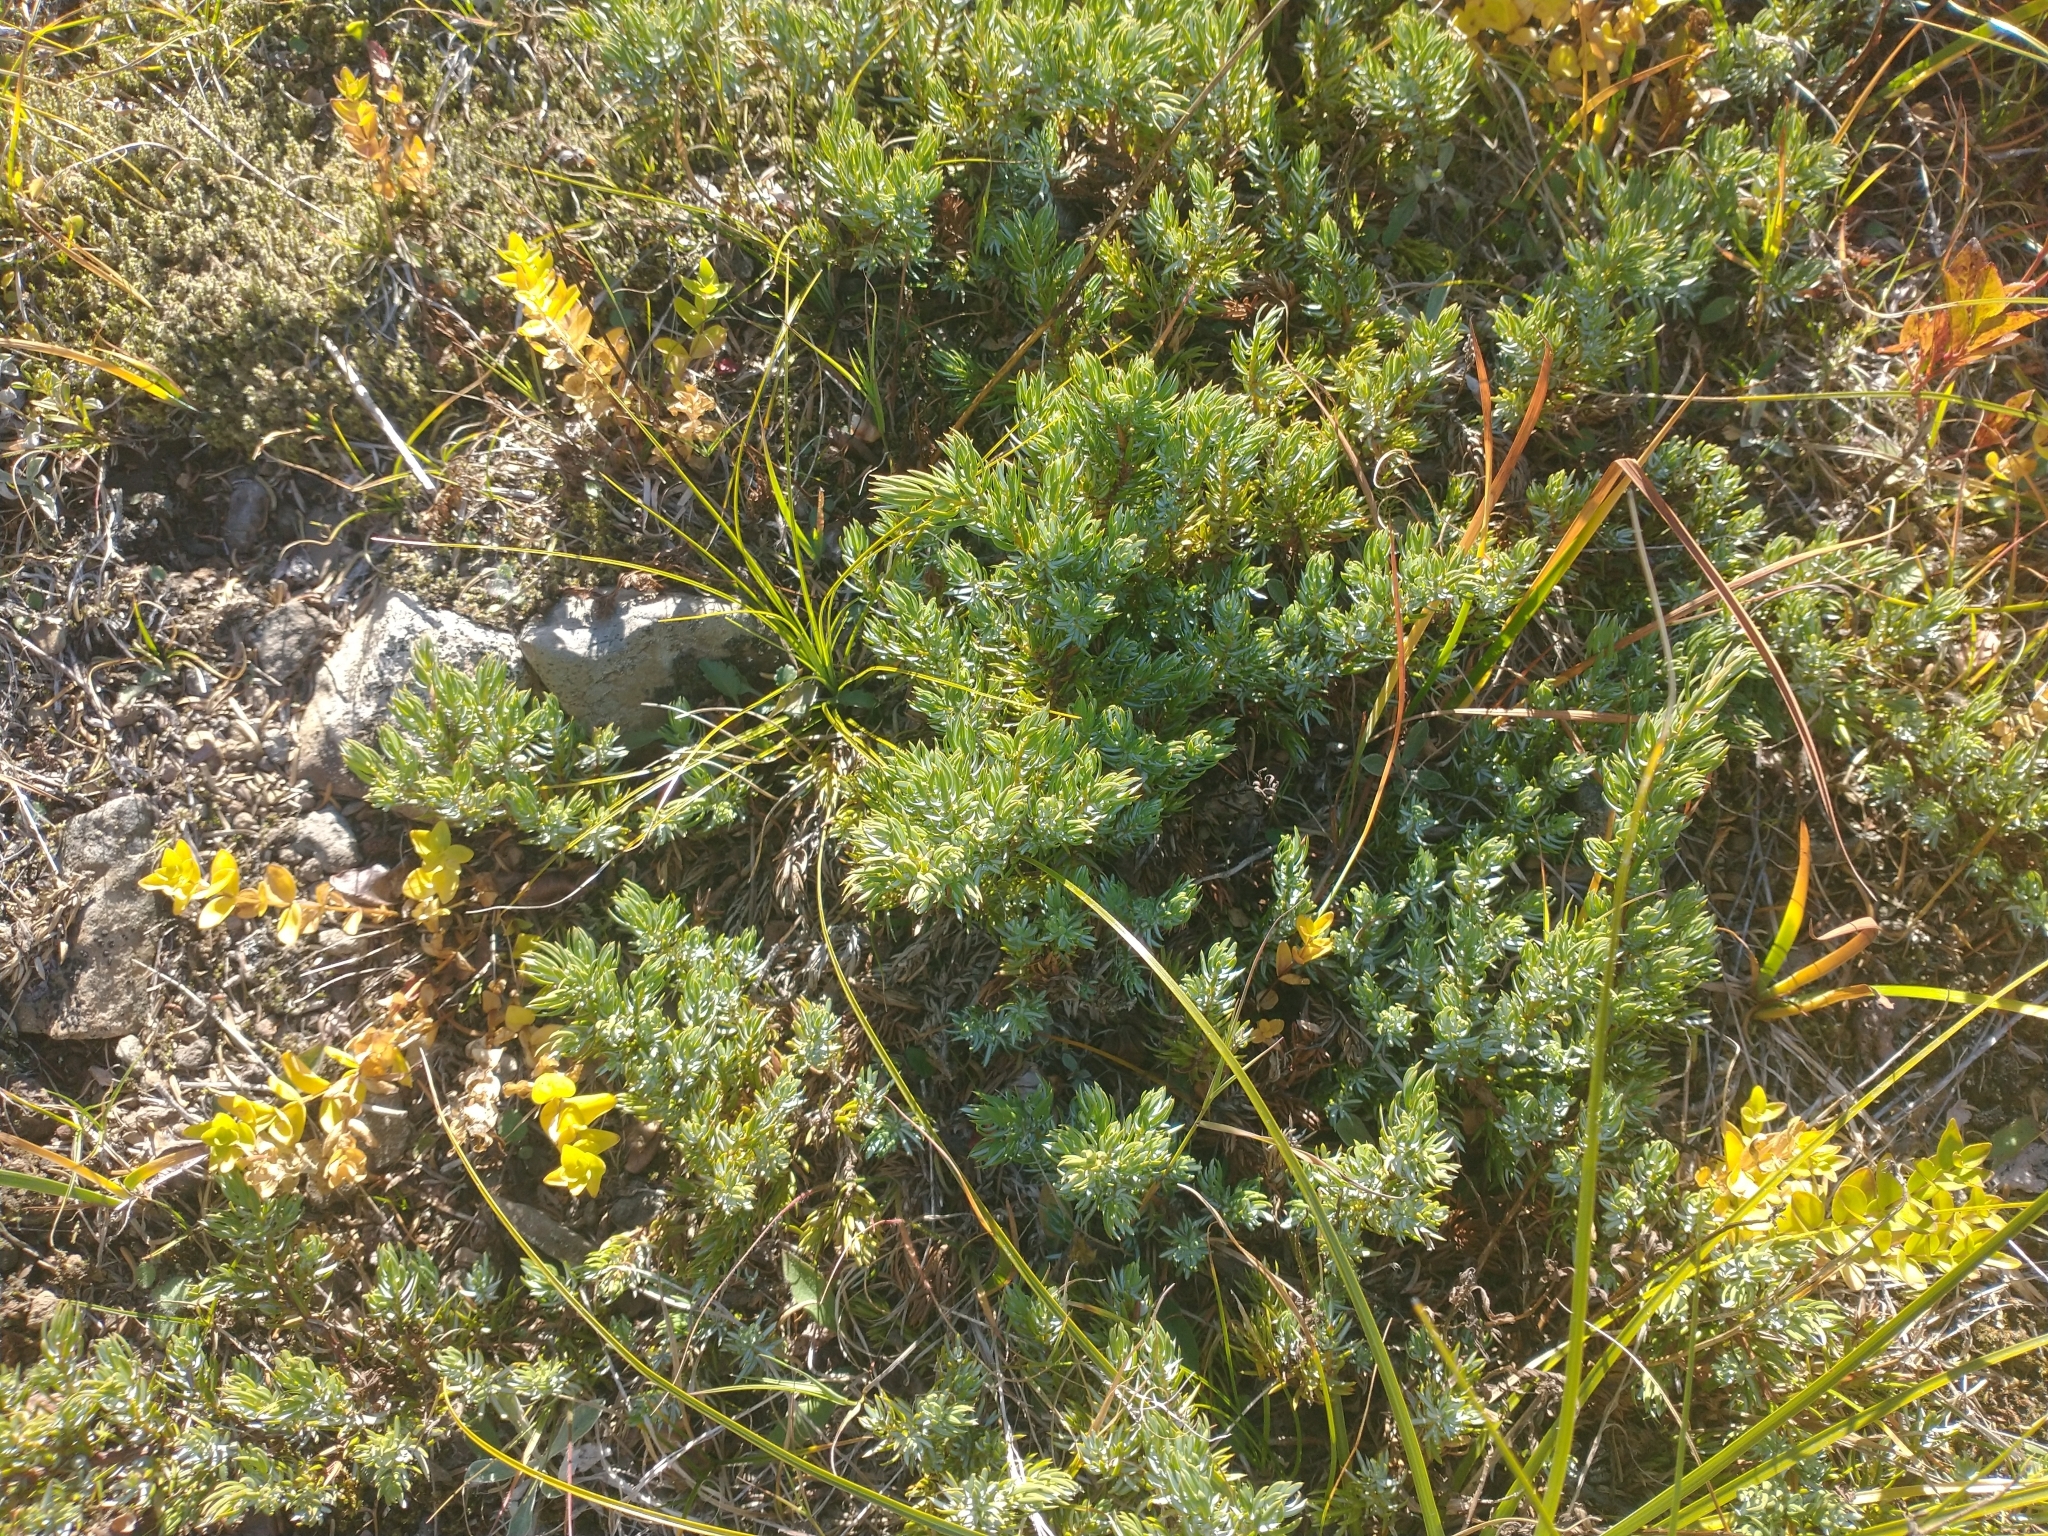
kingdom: Plantae
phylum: Tracheophyta
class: Pinopsida
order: Pinales
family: Cupressaceae
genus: Juniperus
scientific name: Juniperus communis
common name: Common juniper
